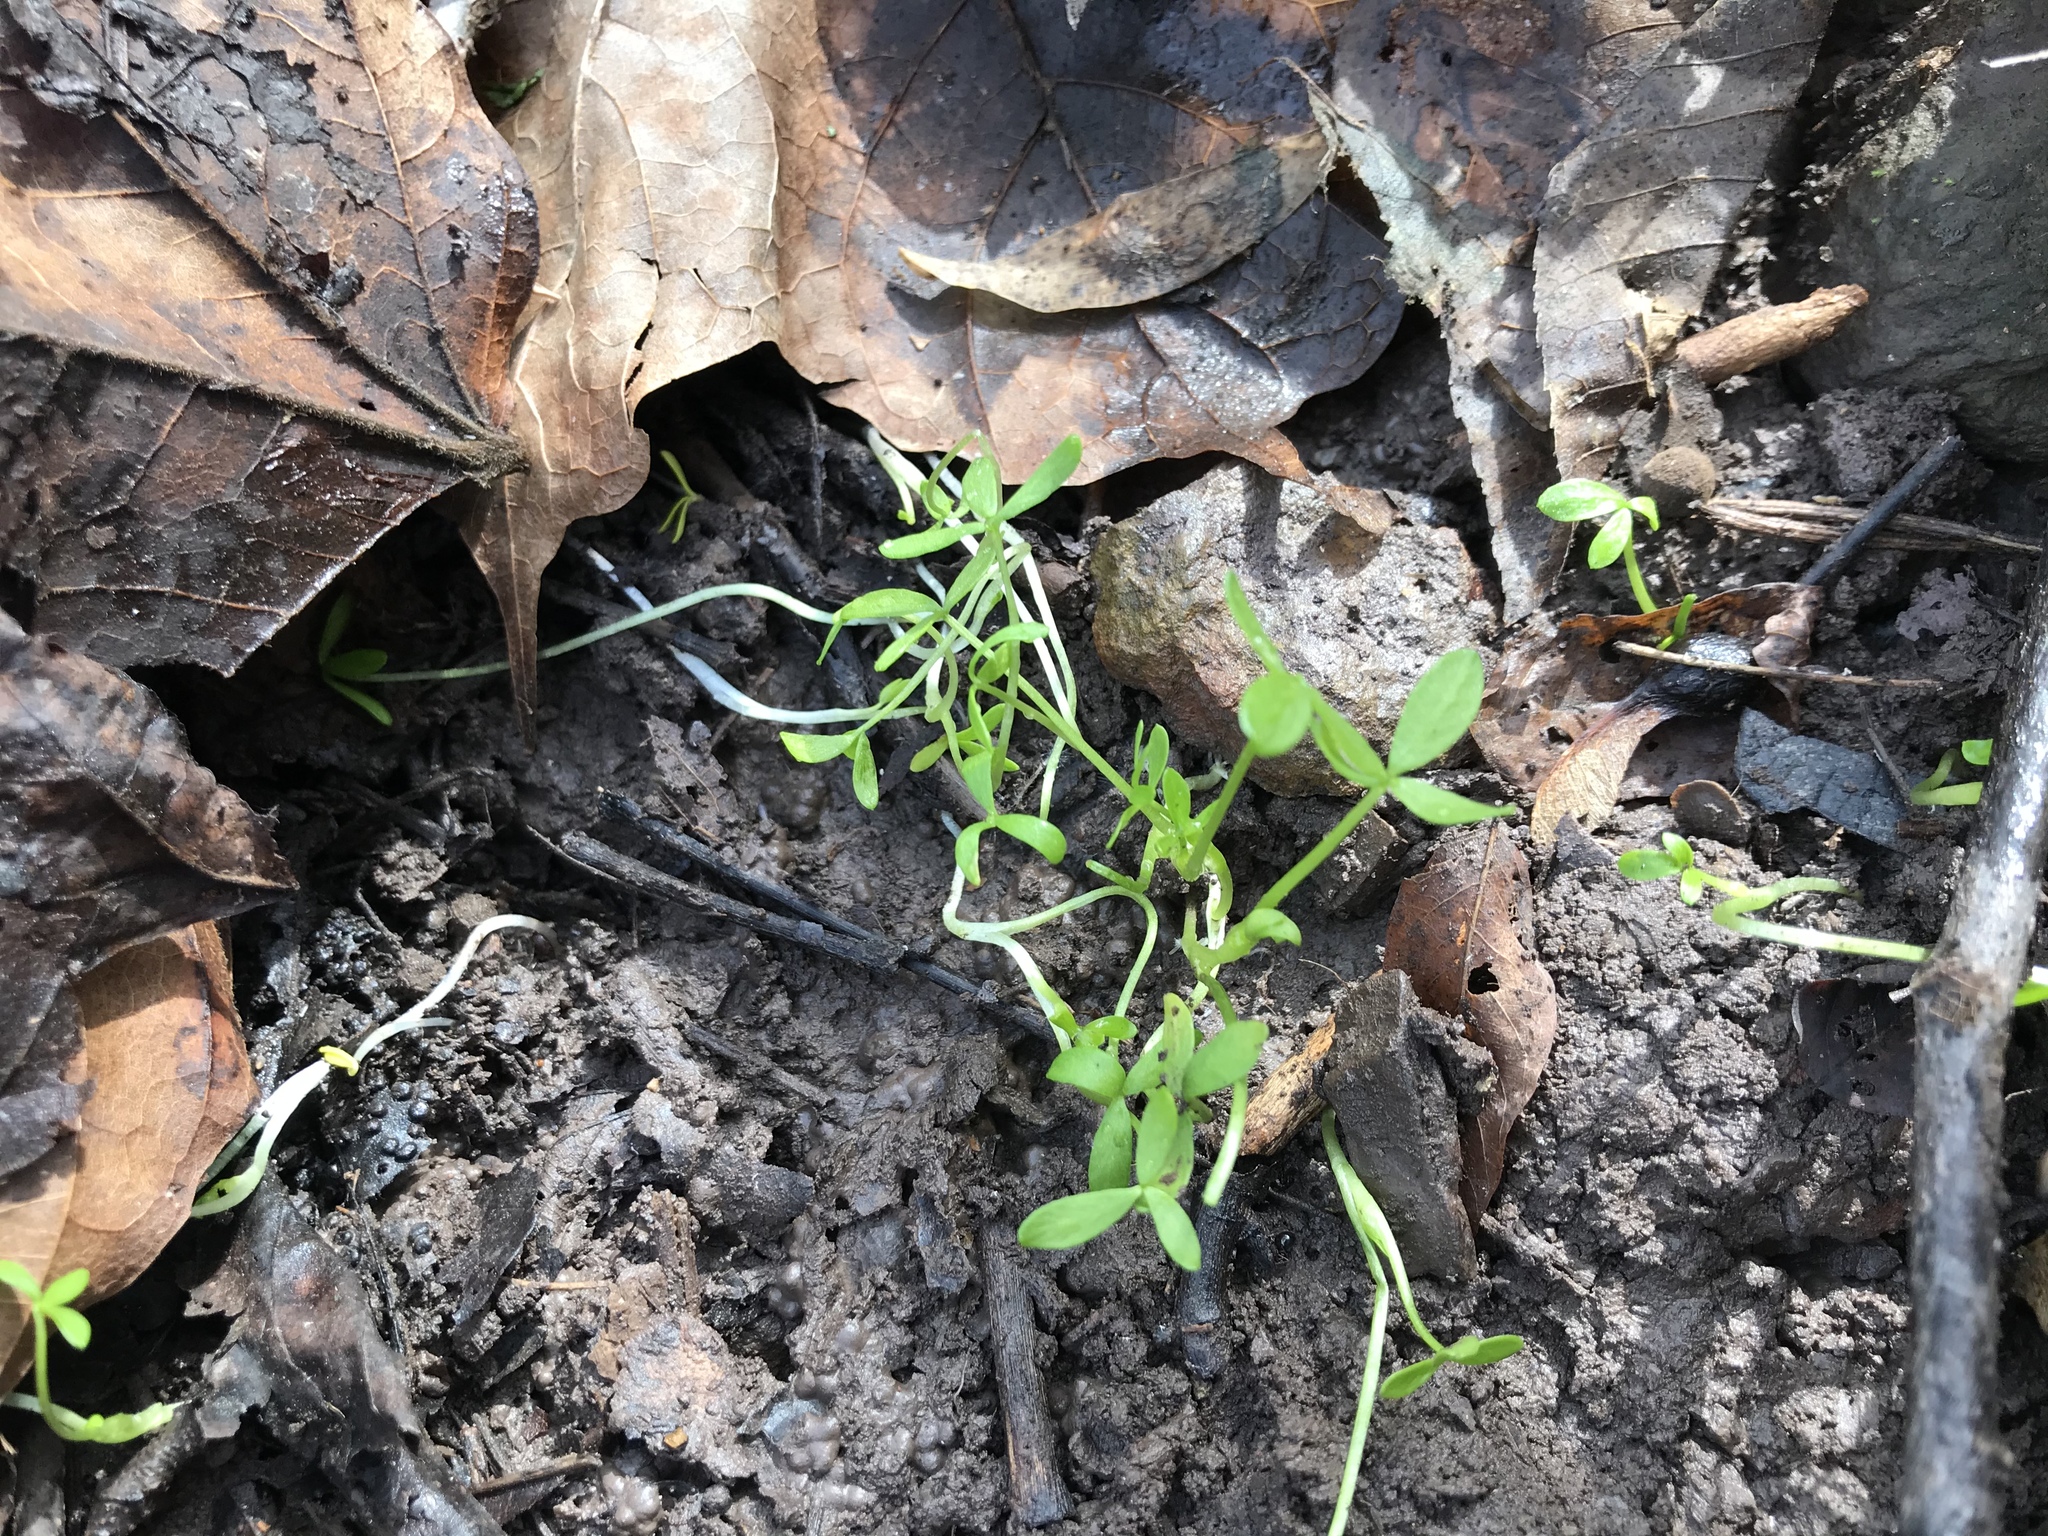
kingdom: Plantae
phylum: Tracheophyta
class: Magnoliopsida
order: Brassicales
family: Limnanthaceae
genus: Floerkea
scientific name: Floerkea proserpinacoides
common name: False mermaid
